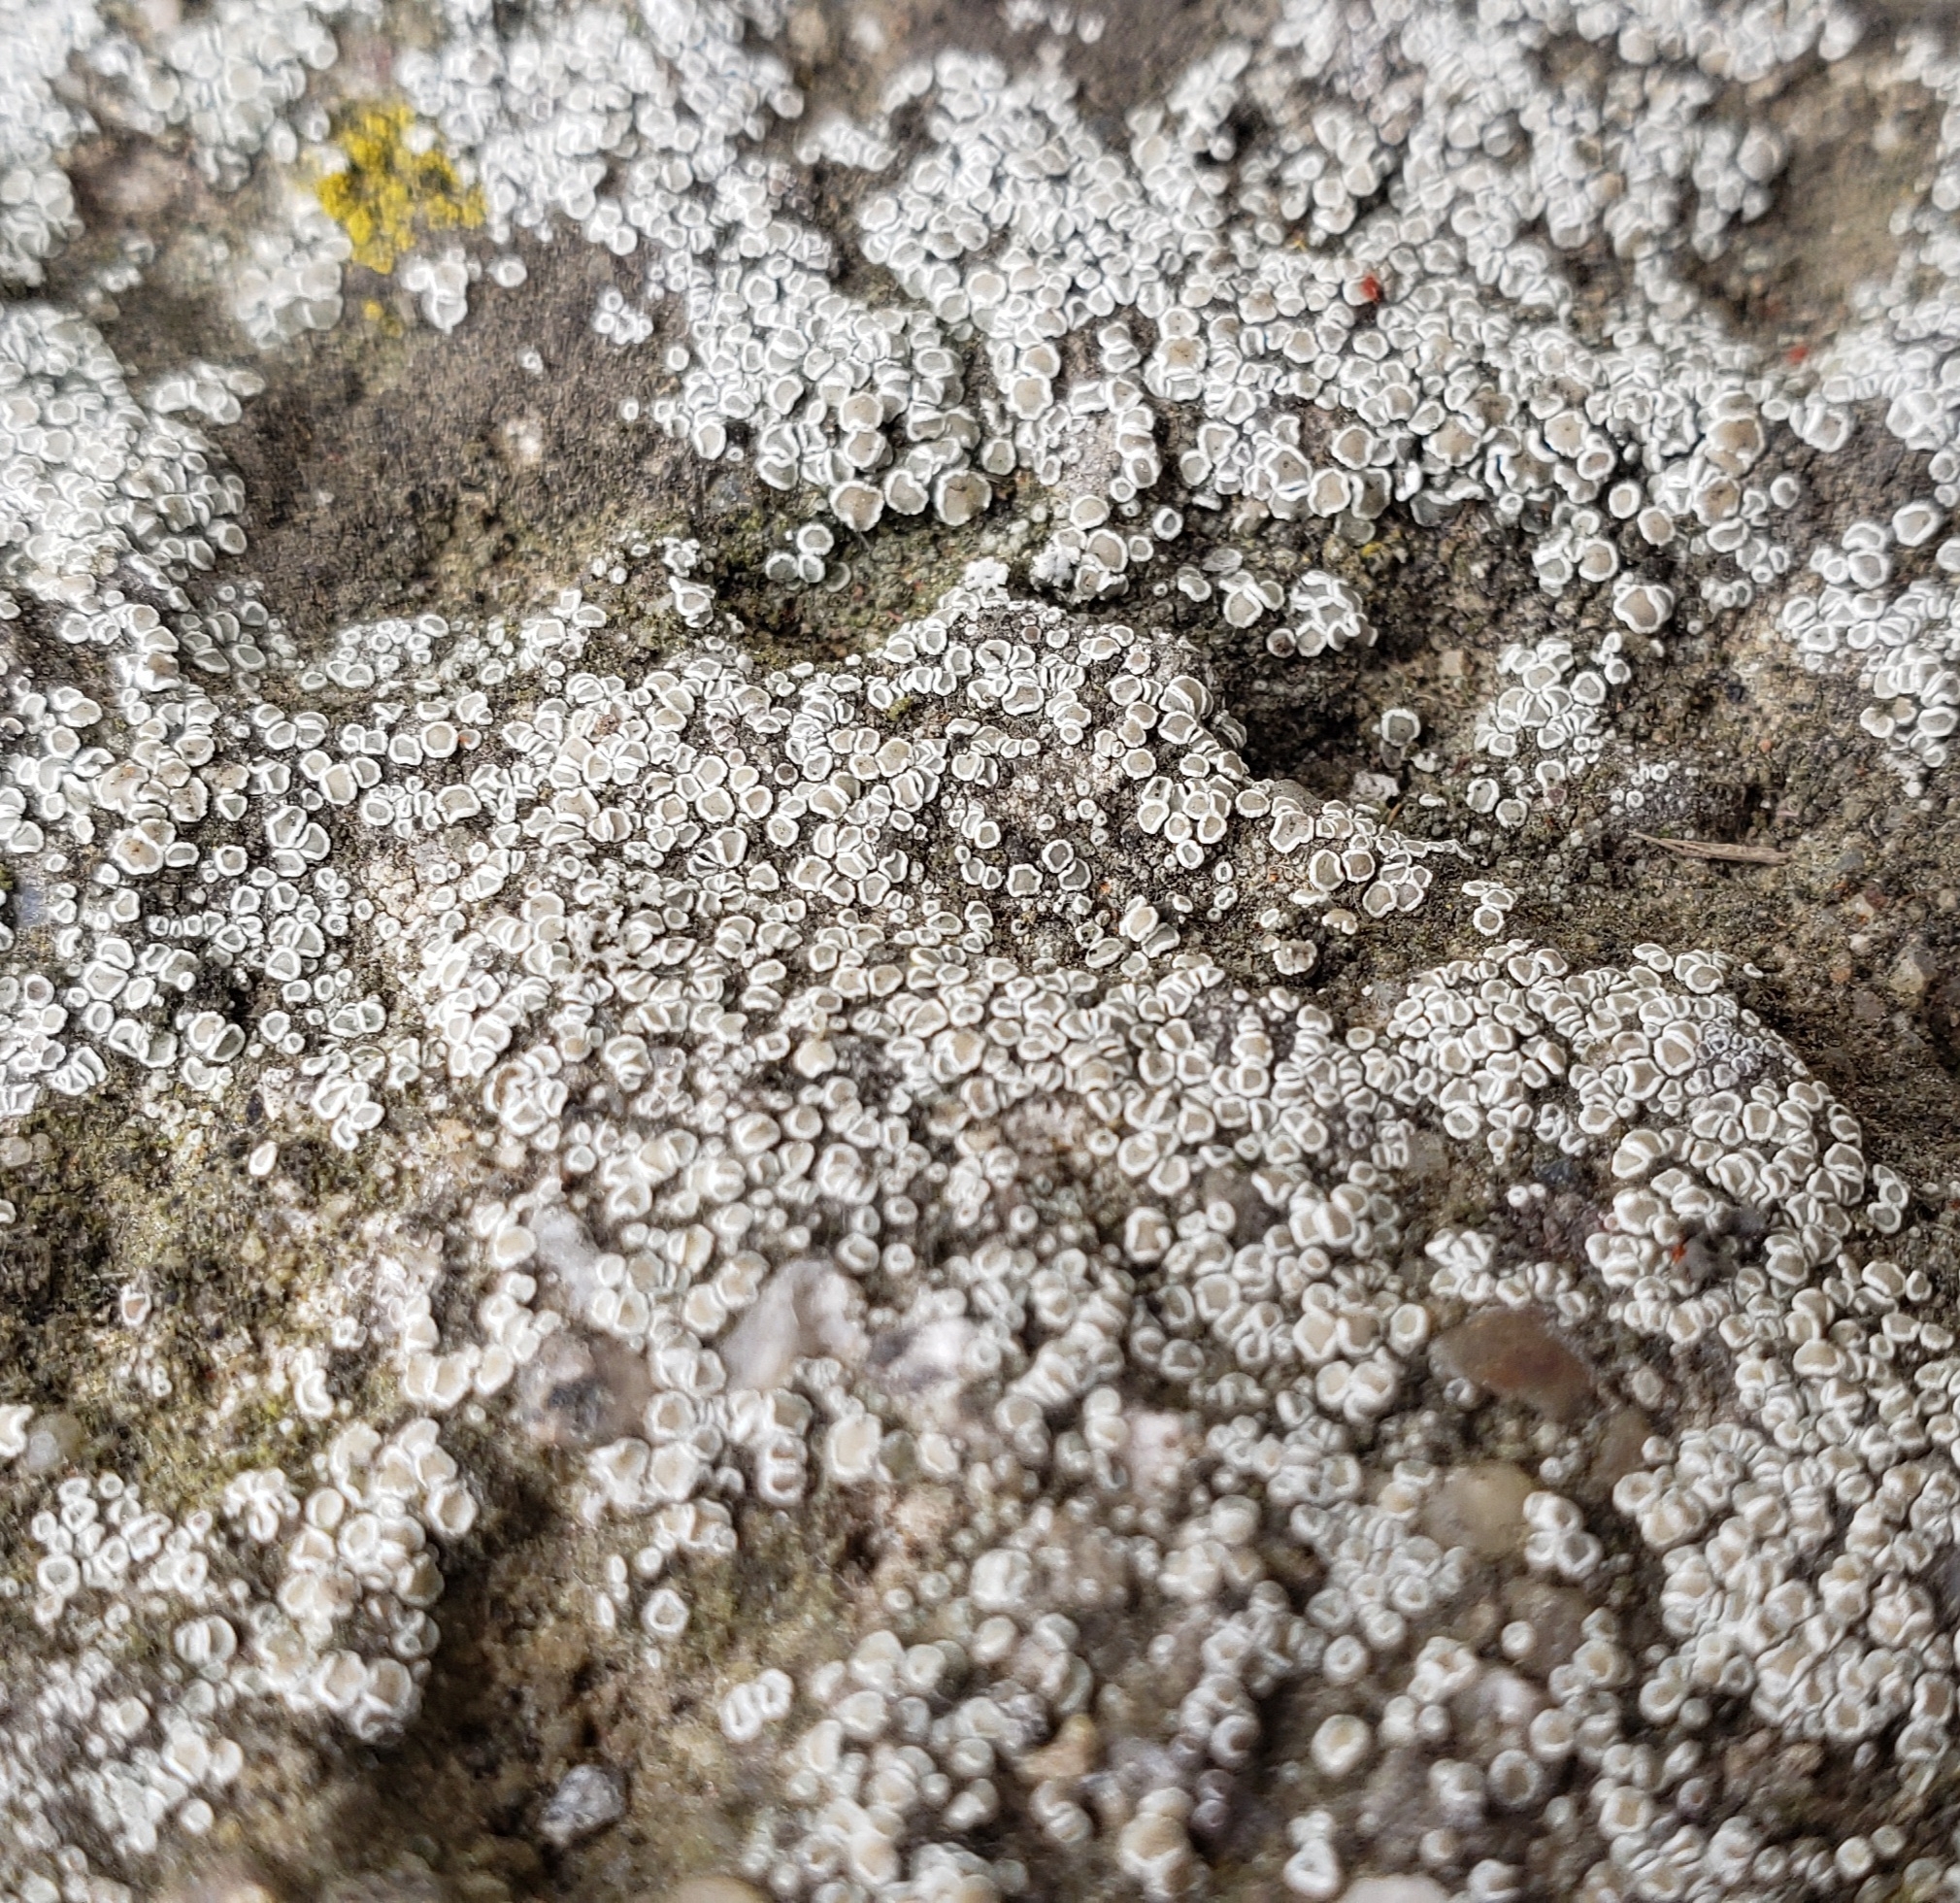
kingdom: Fungi
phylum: Ascomycota
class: Lecanoromycetes
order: Lecanorales
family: Lecanoraceae
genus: Polyozosia
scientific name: Polyozosia dispersa
